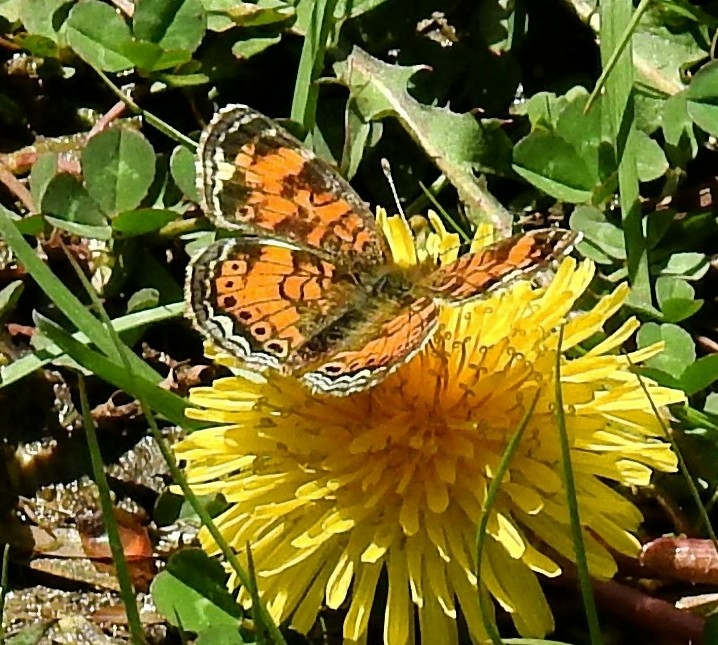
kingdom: Animalia
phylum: Arthropoda
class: Insecta
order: Lepidoptera
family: Nymphalidae
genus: Phyciodes
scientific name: Phyciodes tharos
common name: Pearl crescent
